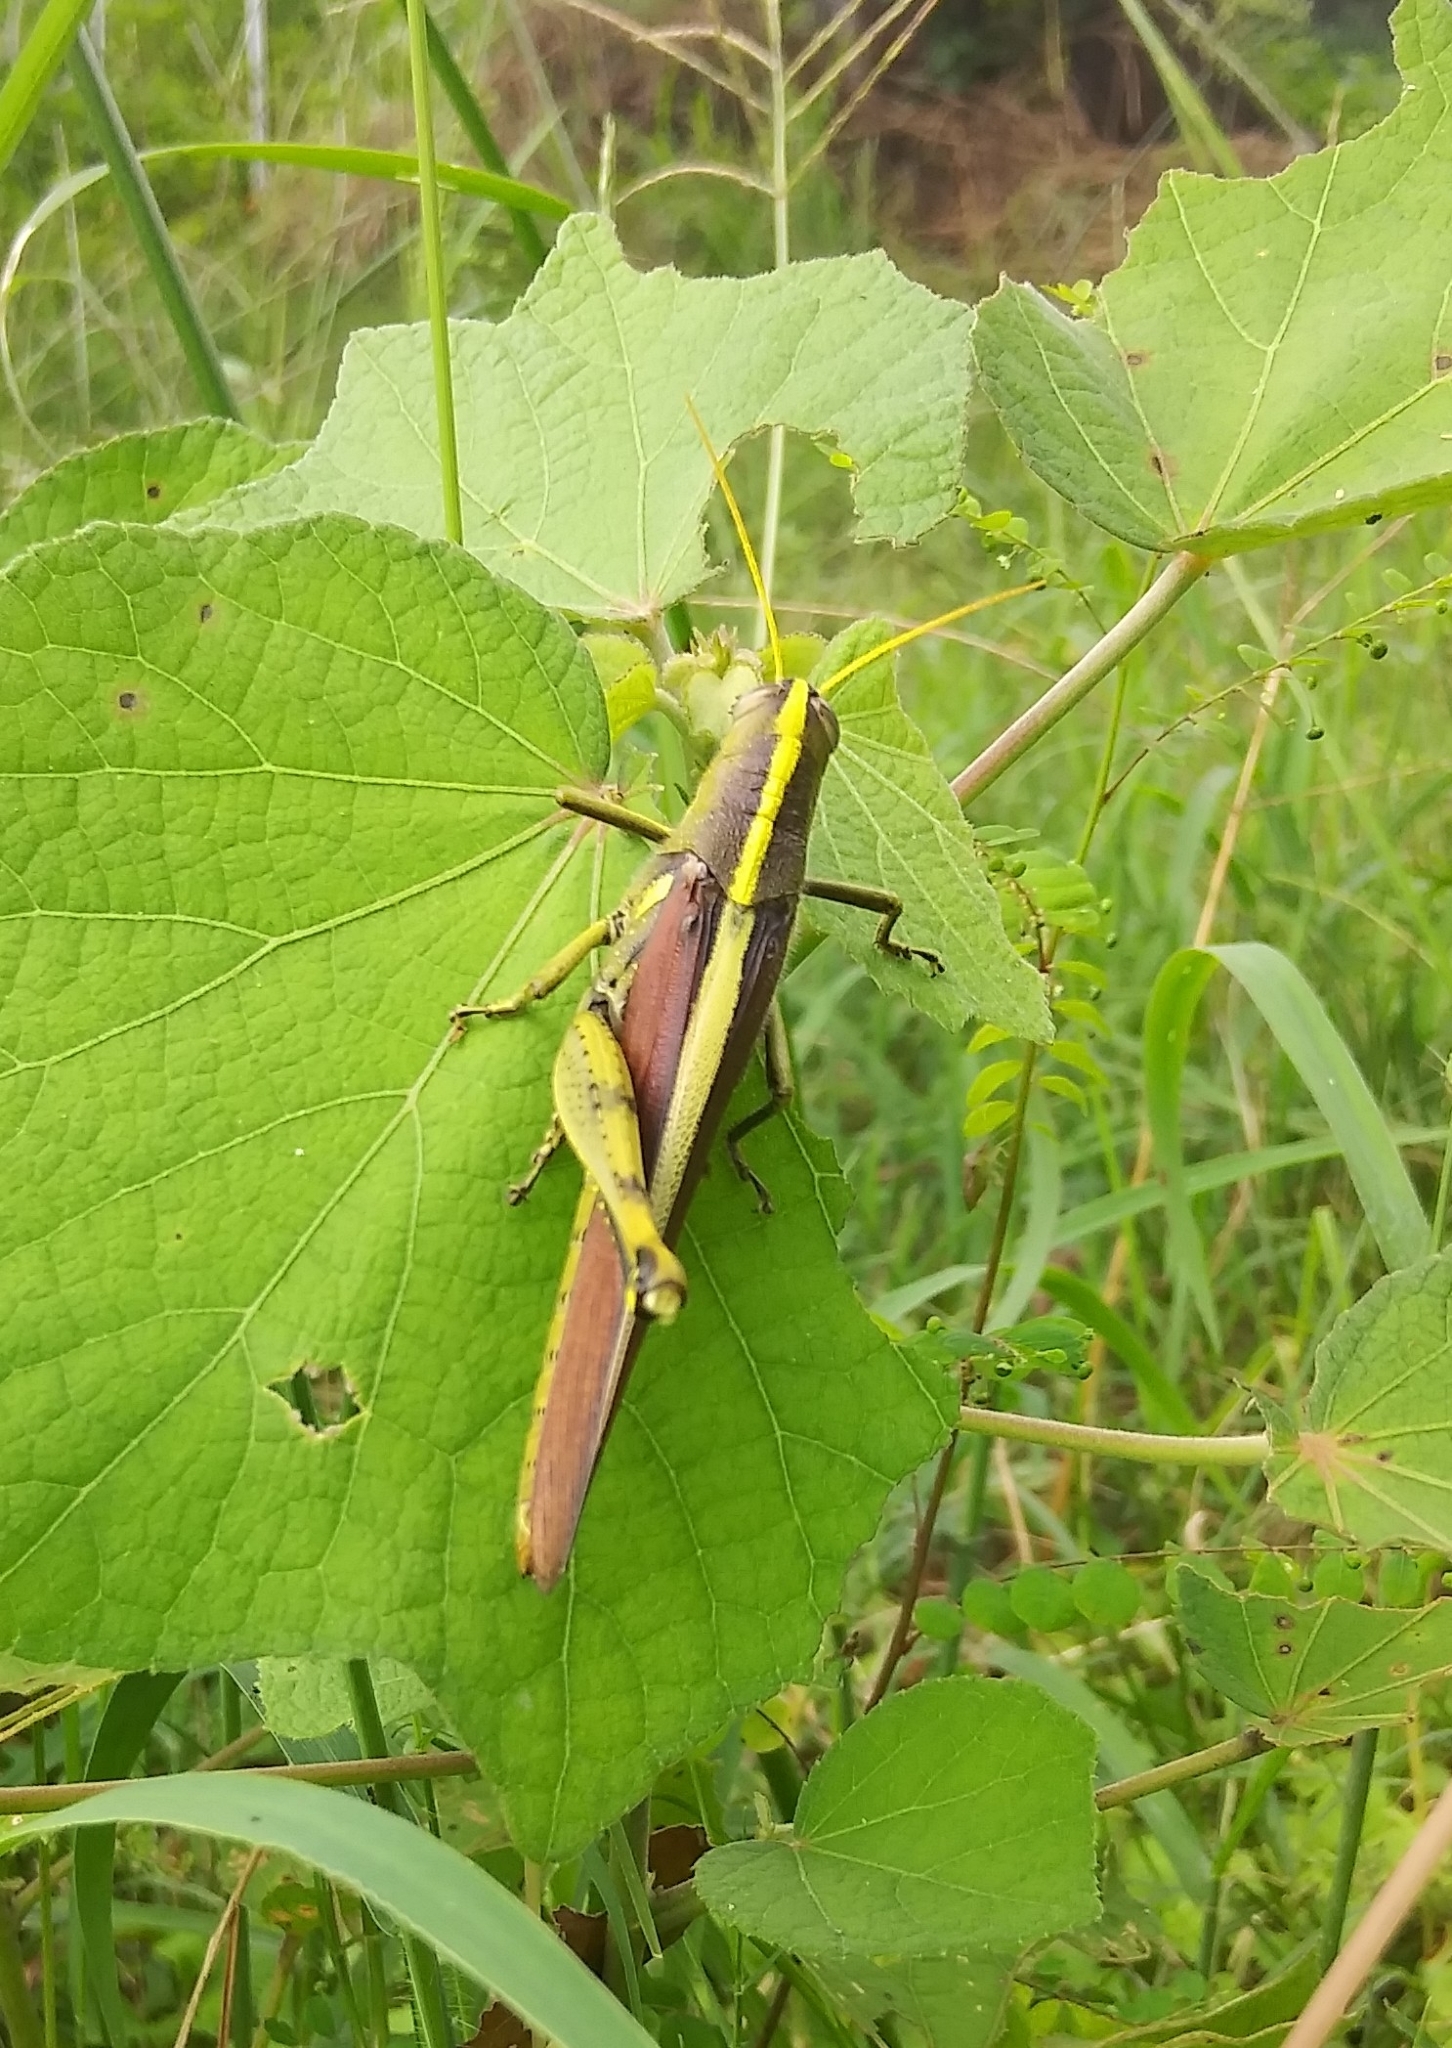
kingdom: Animalia
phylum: Arthropoda
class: Insecta
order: Orthoptera
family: Acrididae
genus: Schistocerca
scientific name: Schistocerca obscura
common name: Obscure bird grasshopper
